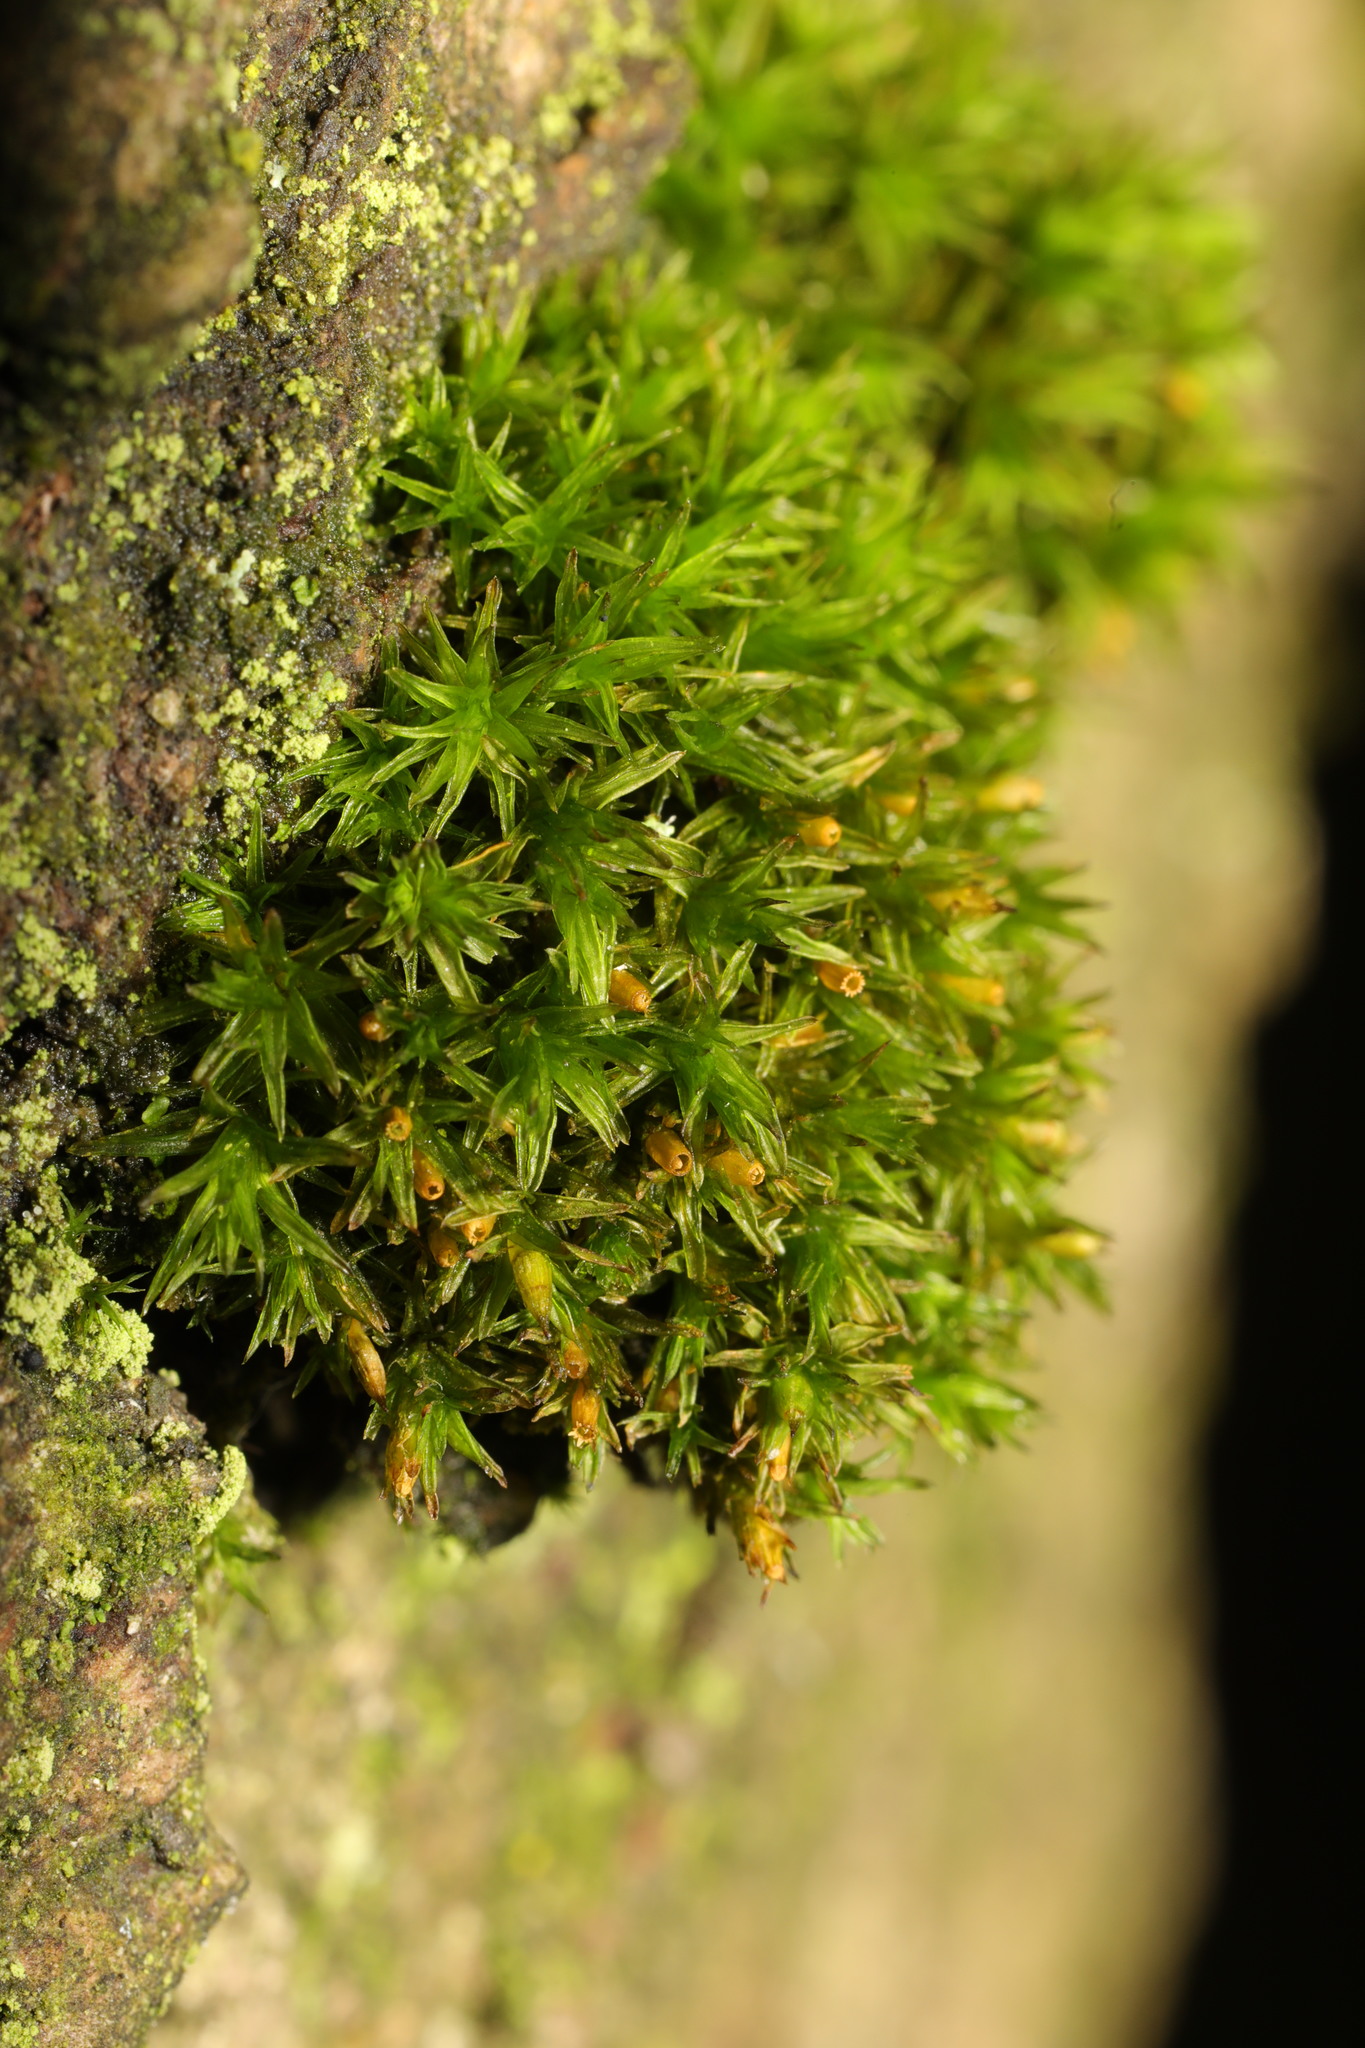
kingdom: Plantae
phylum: Bryophyta
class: Bryopsida
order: Orthotrichales
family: Orthotrichaceae
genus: Lewinskya
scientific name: Lewinskya affinis
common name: Wood bristle-moss
